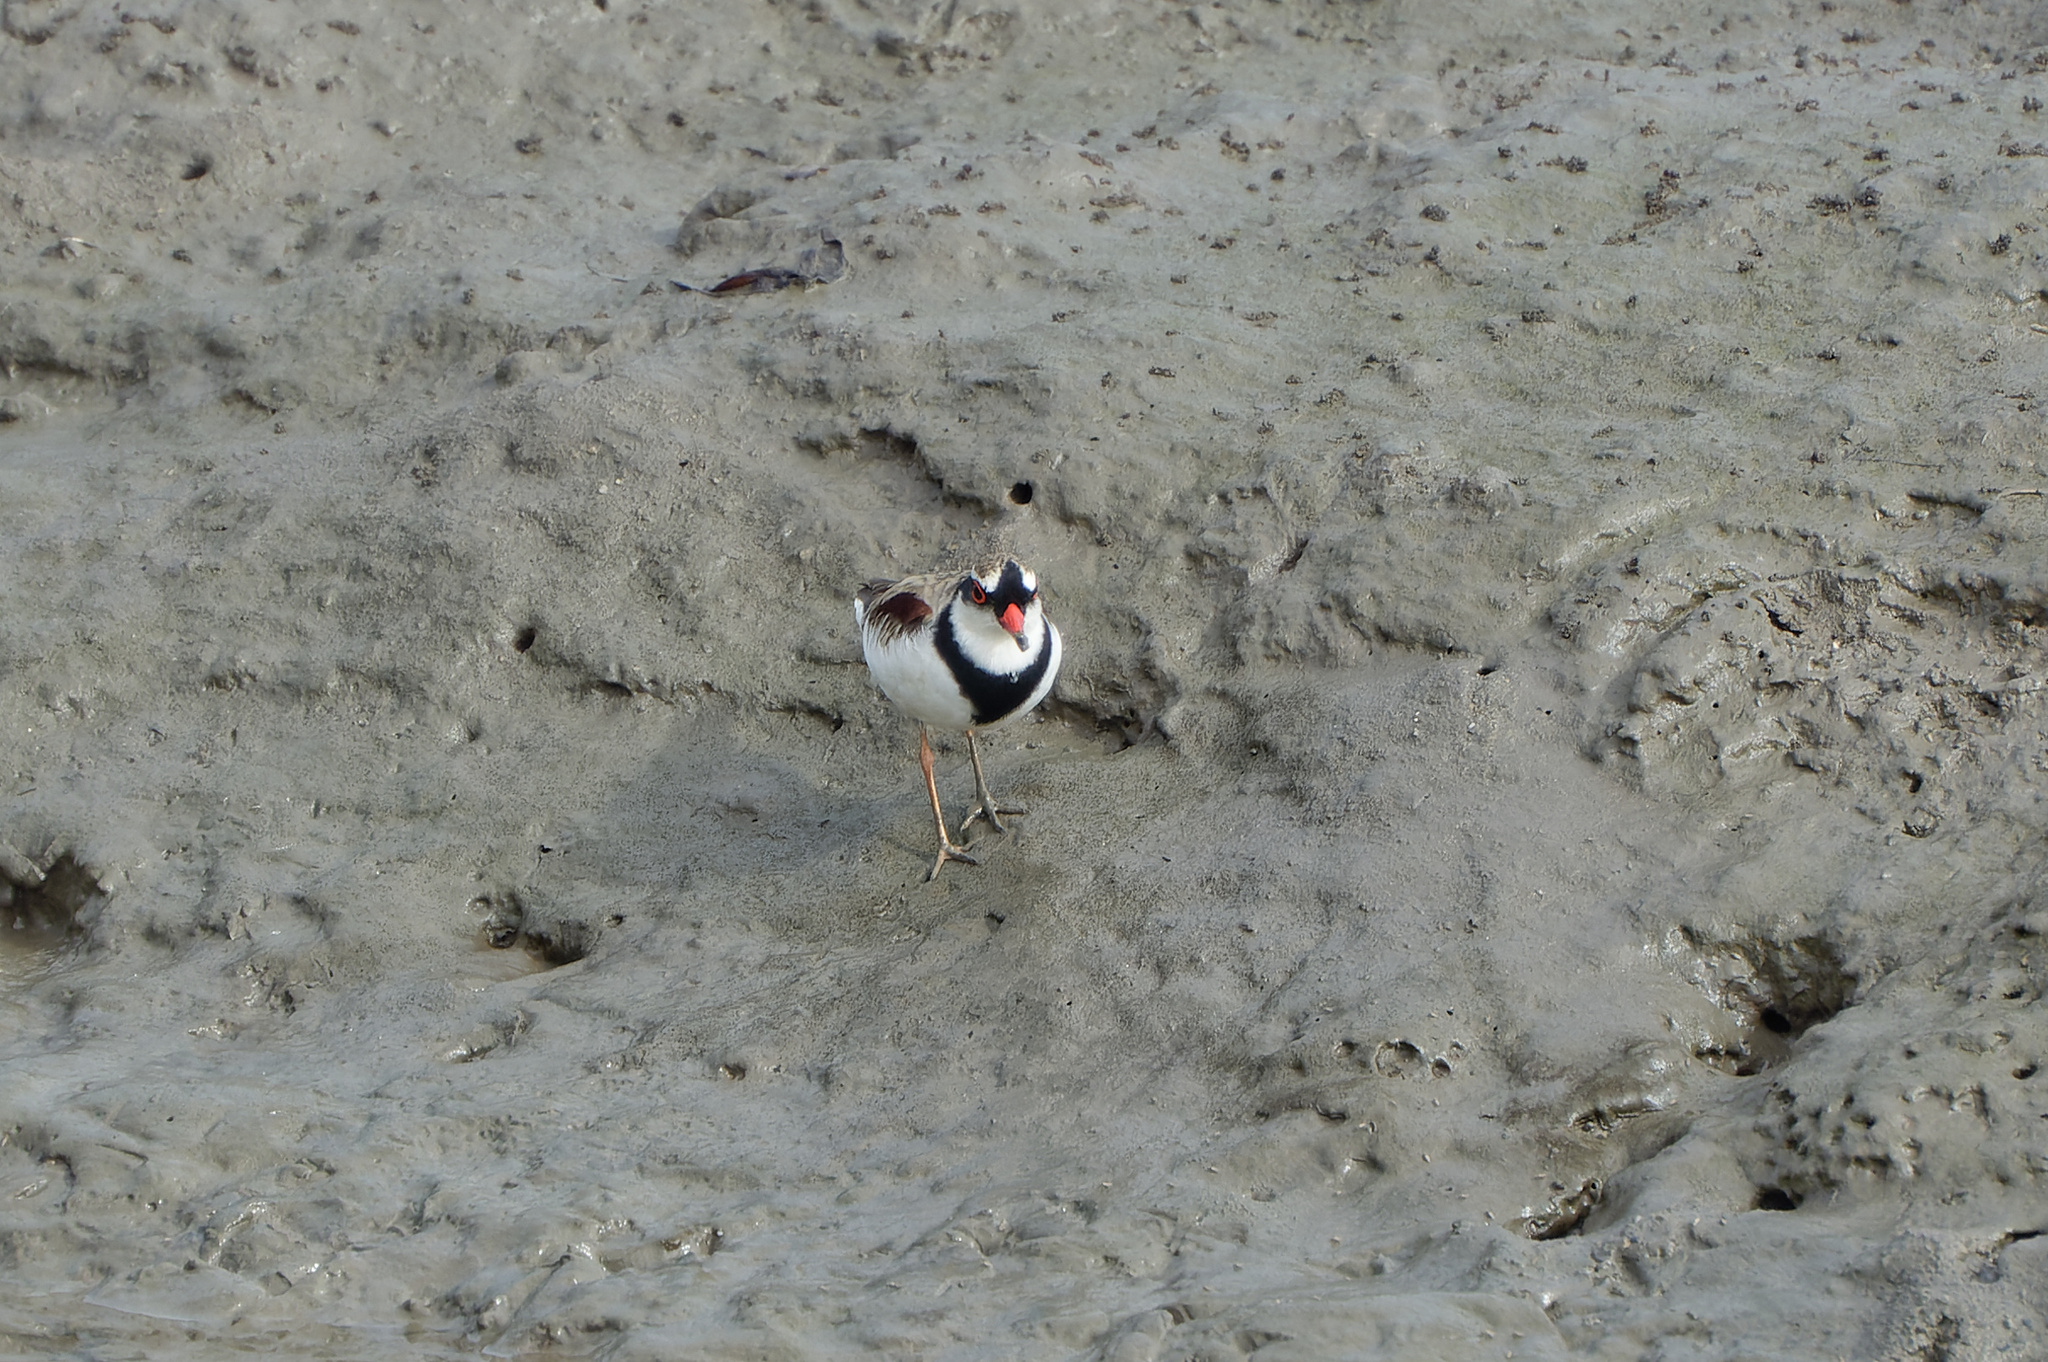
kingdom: Animalia
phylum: Chordata
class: Aves
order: Charadriiformes
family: Charadriidae
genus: Elseyornis
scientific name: Elseyornis melanops
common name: Black-fronted dotterel
